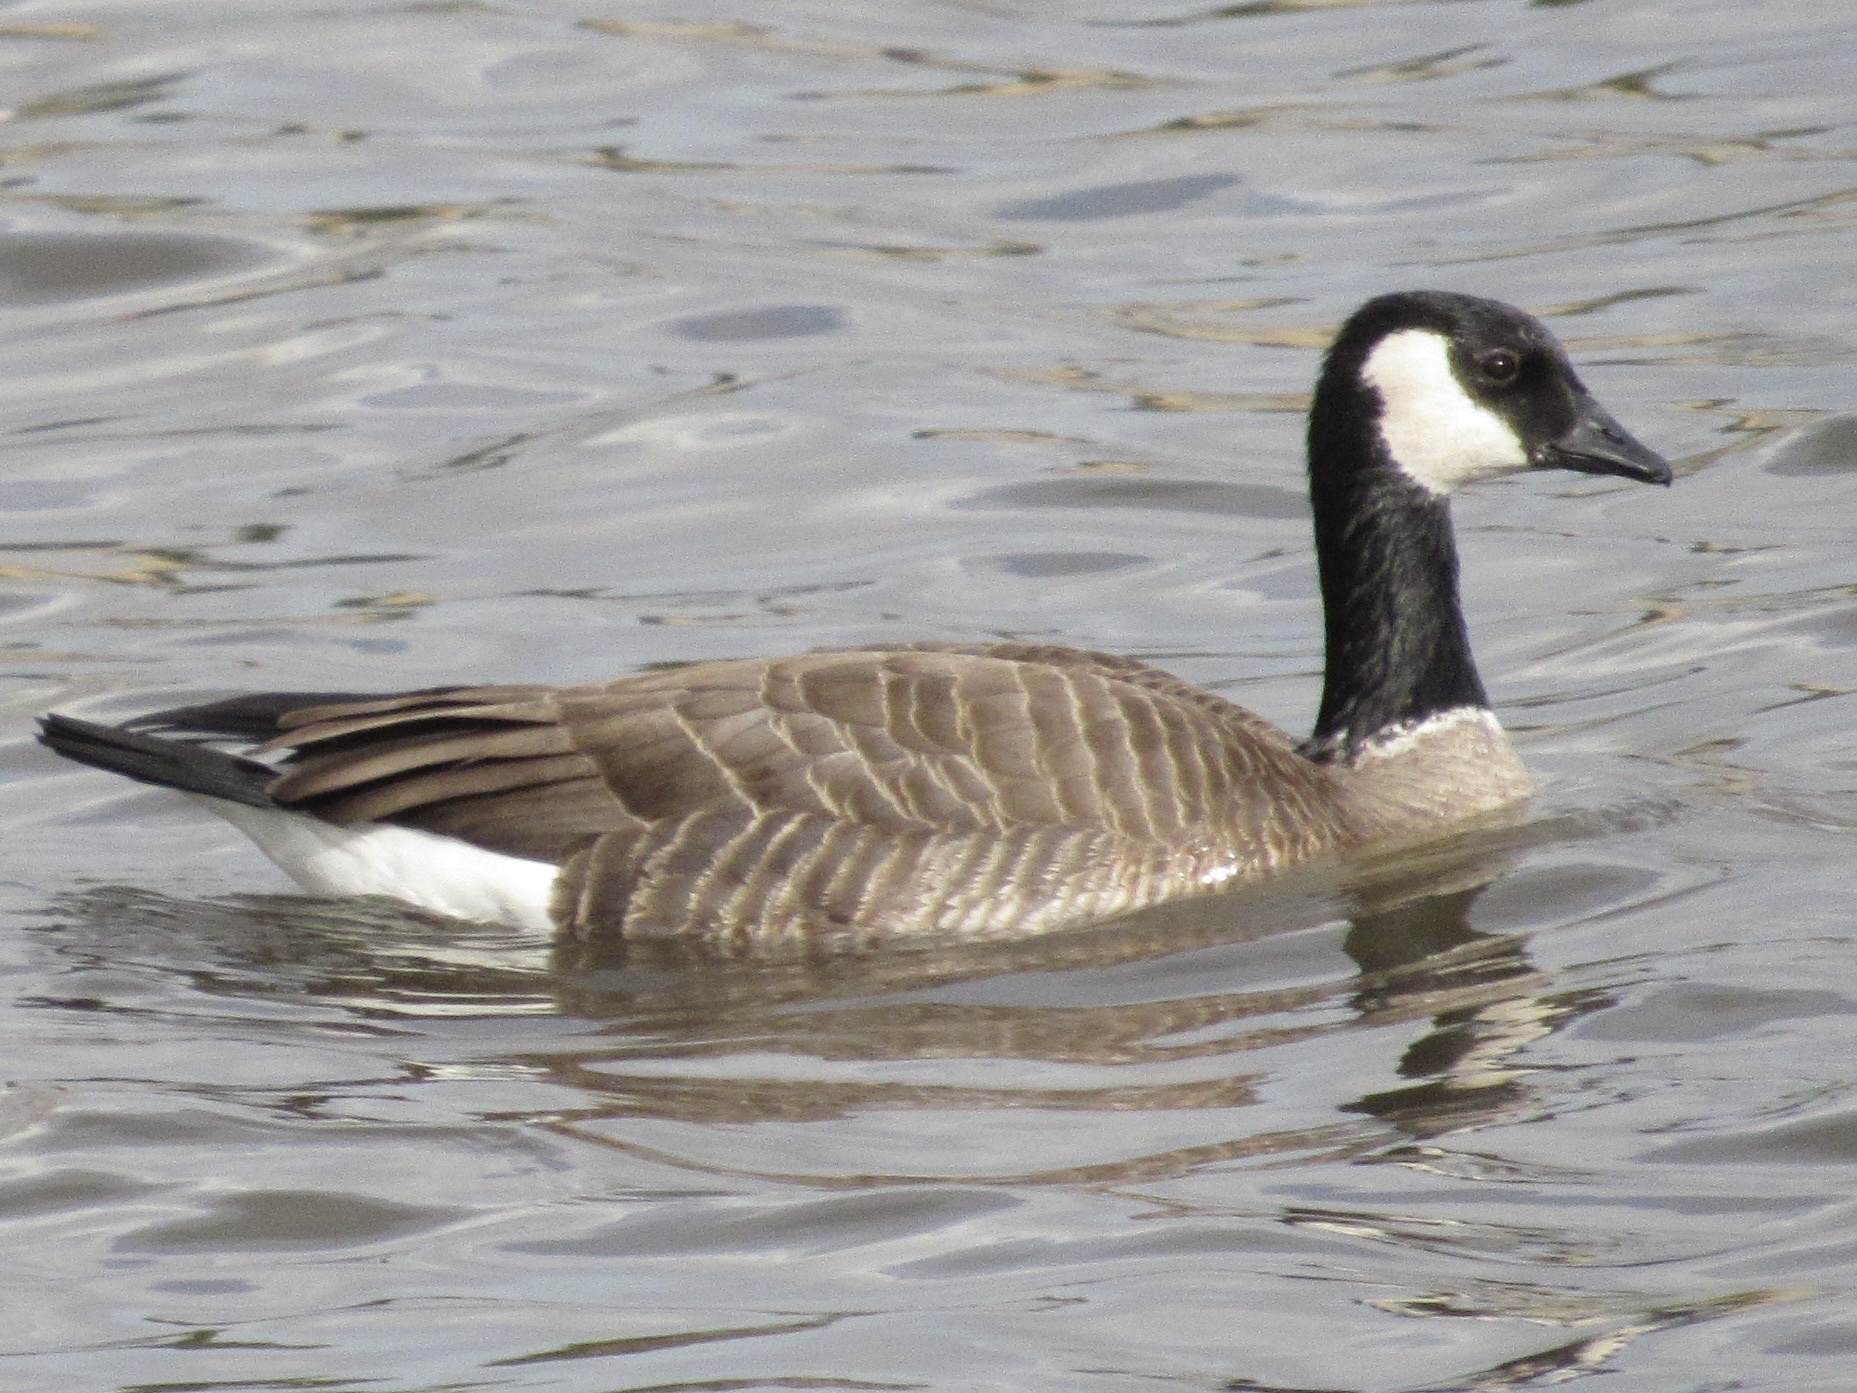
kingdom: Animalia
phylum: Chordata
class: Aves
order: Anseriformes
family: Anatidae
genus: Branta
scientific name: Branta hutchinsii
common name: Cackling goose
